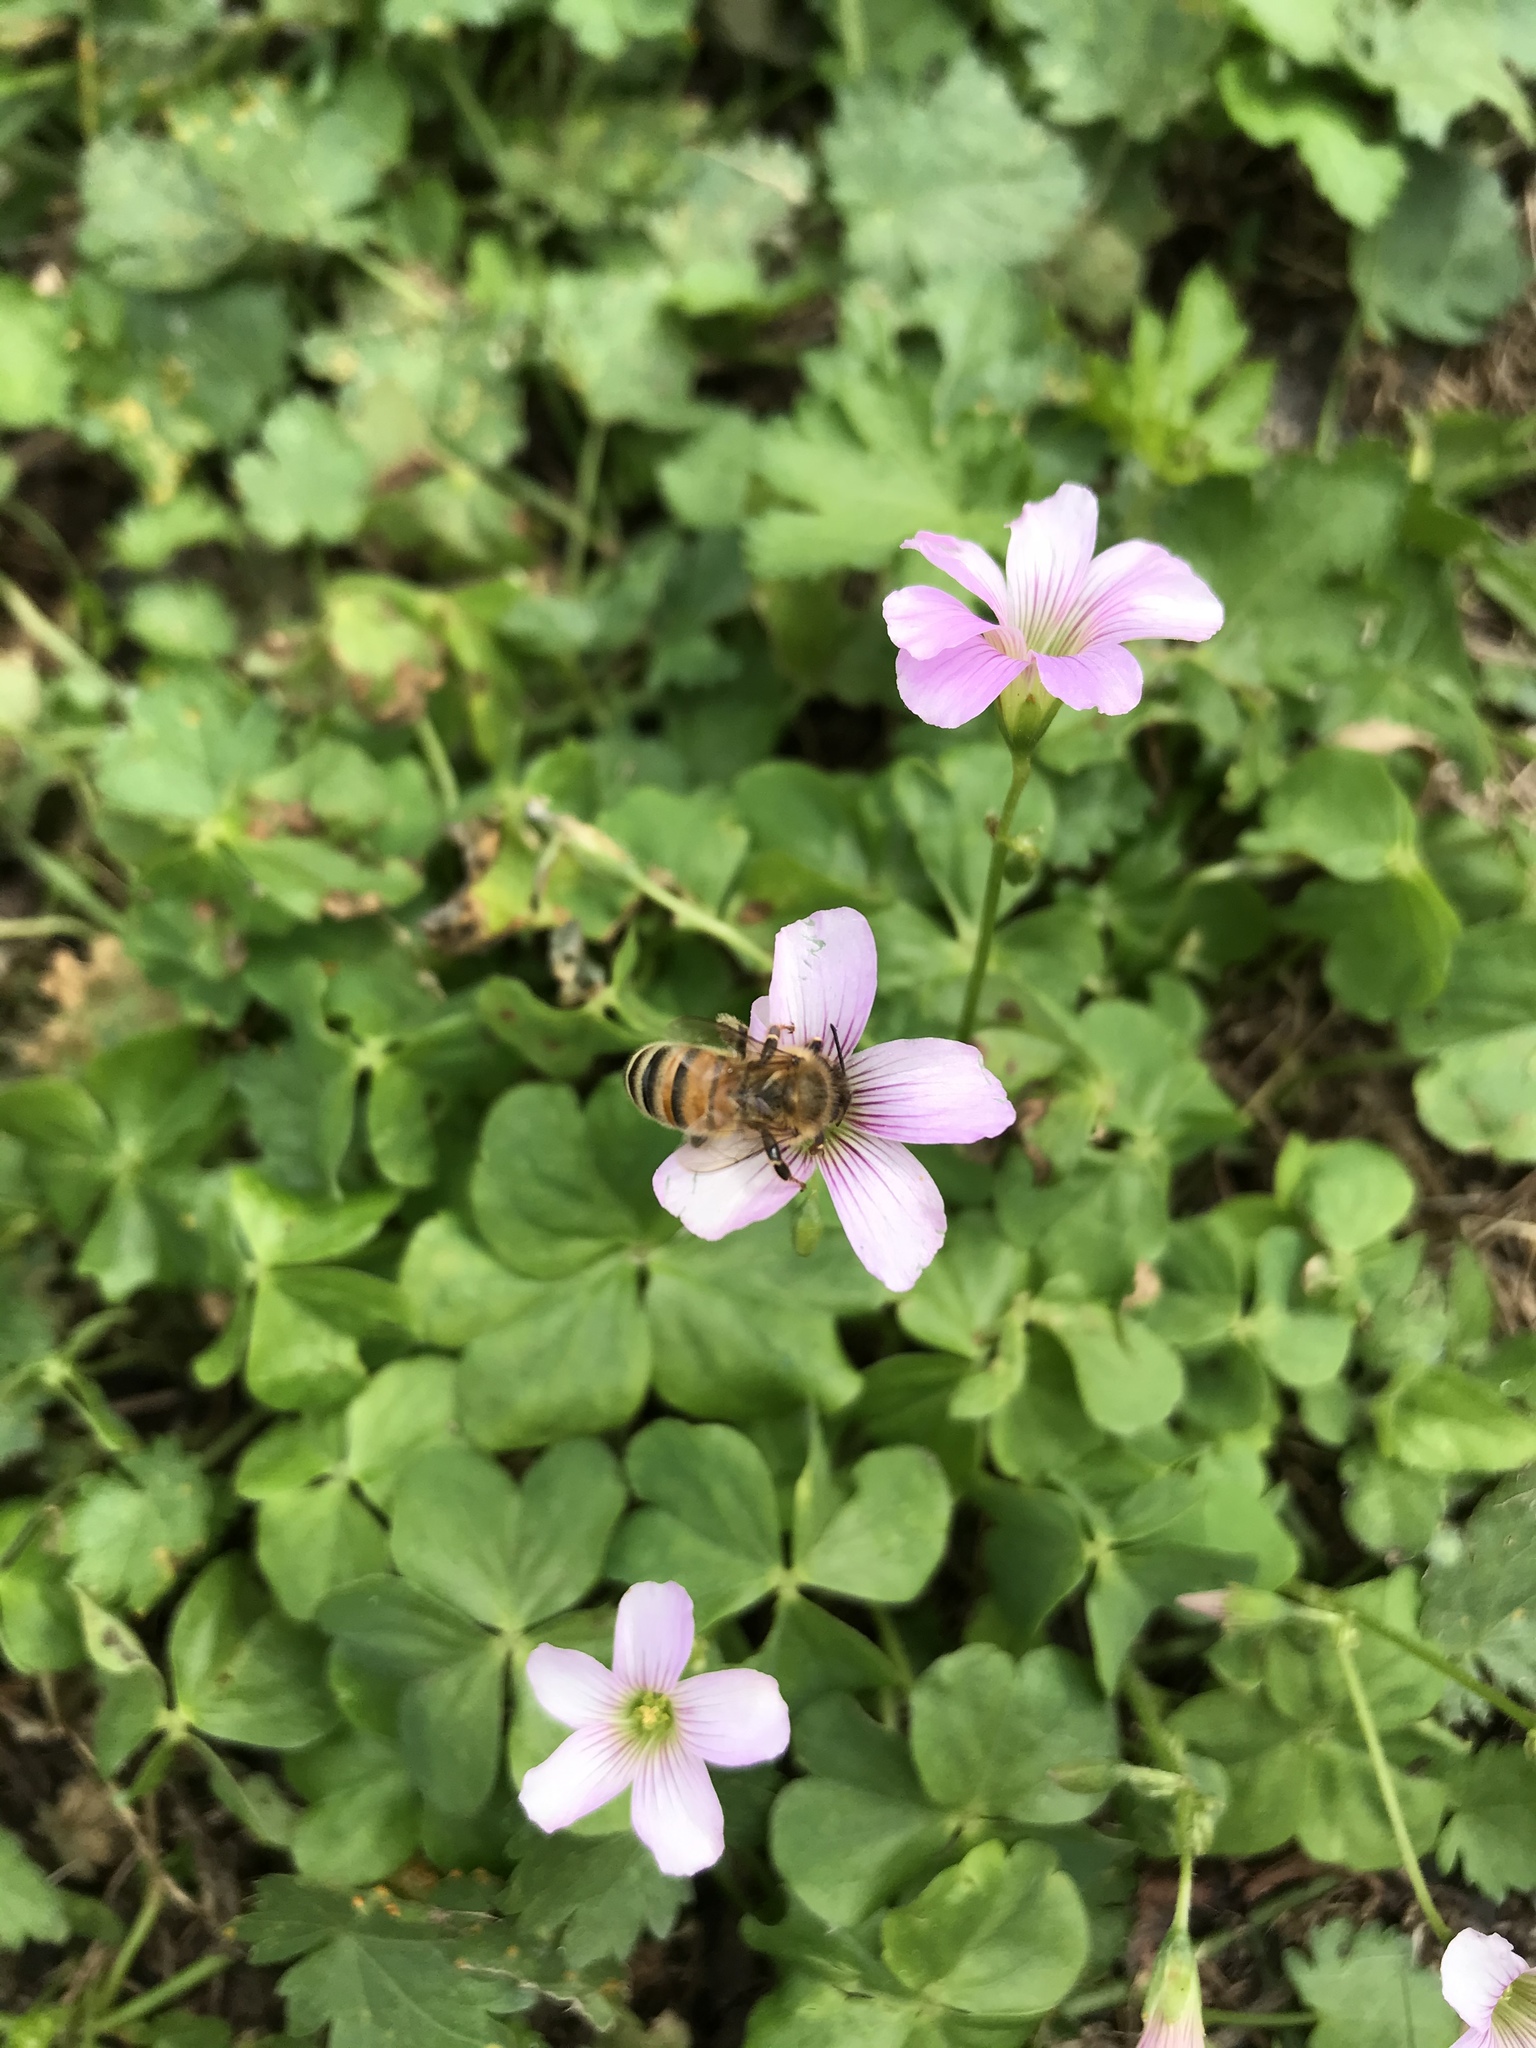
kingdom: Animalia
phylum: Arthropoda
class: Insecta
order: Hymenoptera
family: Apidae
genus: Apis
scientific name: Apis mellifera
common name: Honey bee
